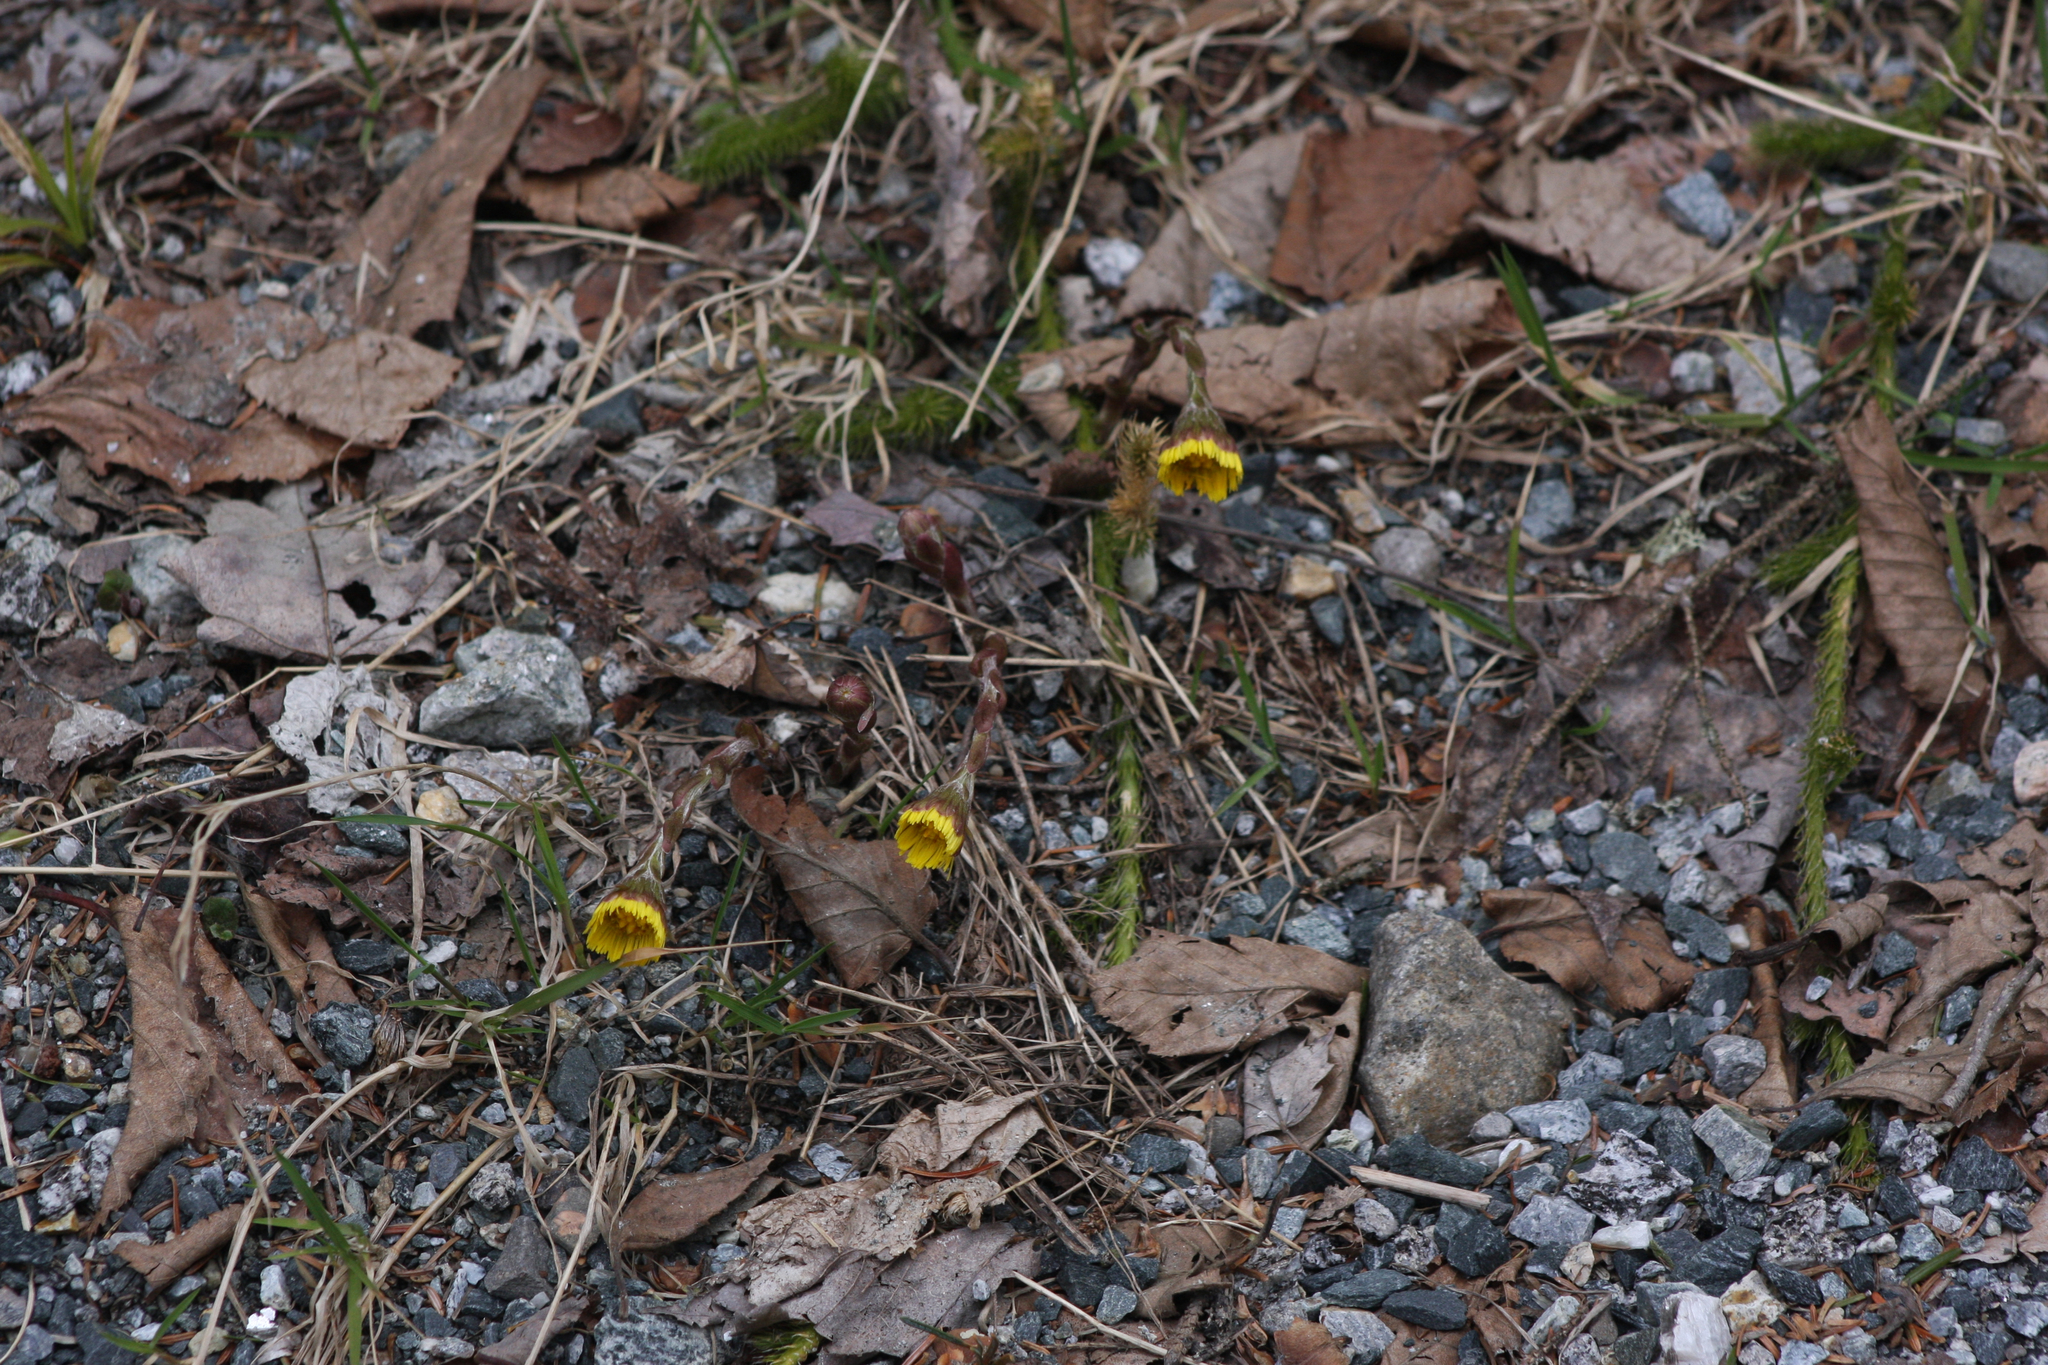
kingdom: Plantae
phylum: Tracheophyta
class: Magnoliopsida
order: Asterales
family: Asteraceae
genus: Tussilago
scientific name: Tussilago farfara
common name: Coltsfoot
